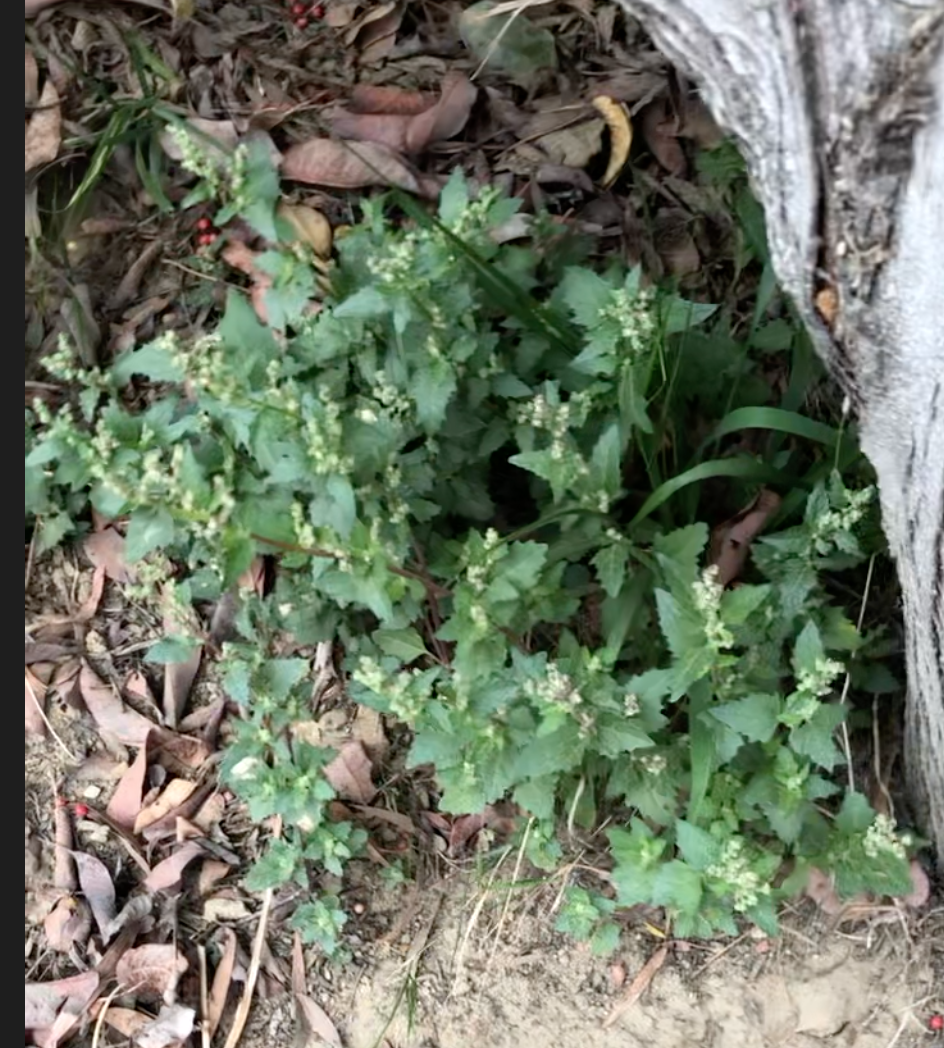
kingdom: Plantae
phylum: Tracheophyta
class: Magnoliopsida
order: Caryophyllales
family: Amaranthaceae
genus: Chenopodiastrum
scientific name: Chenopodiastrum murale
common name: Sowbane
